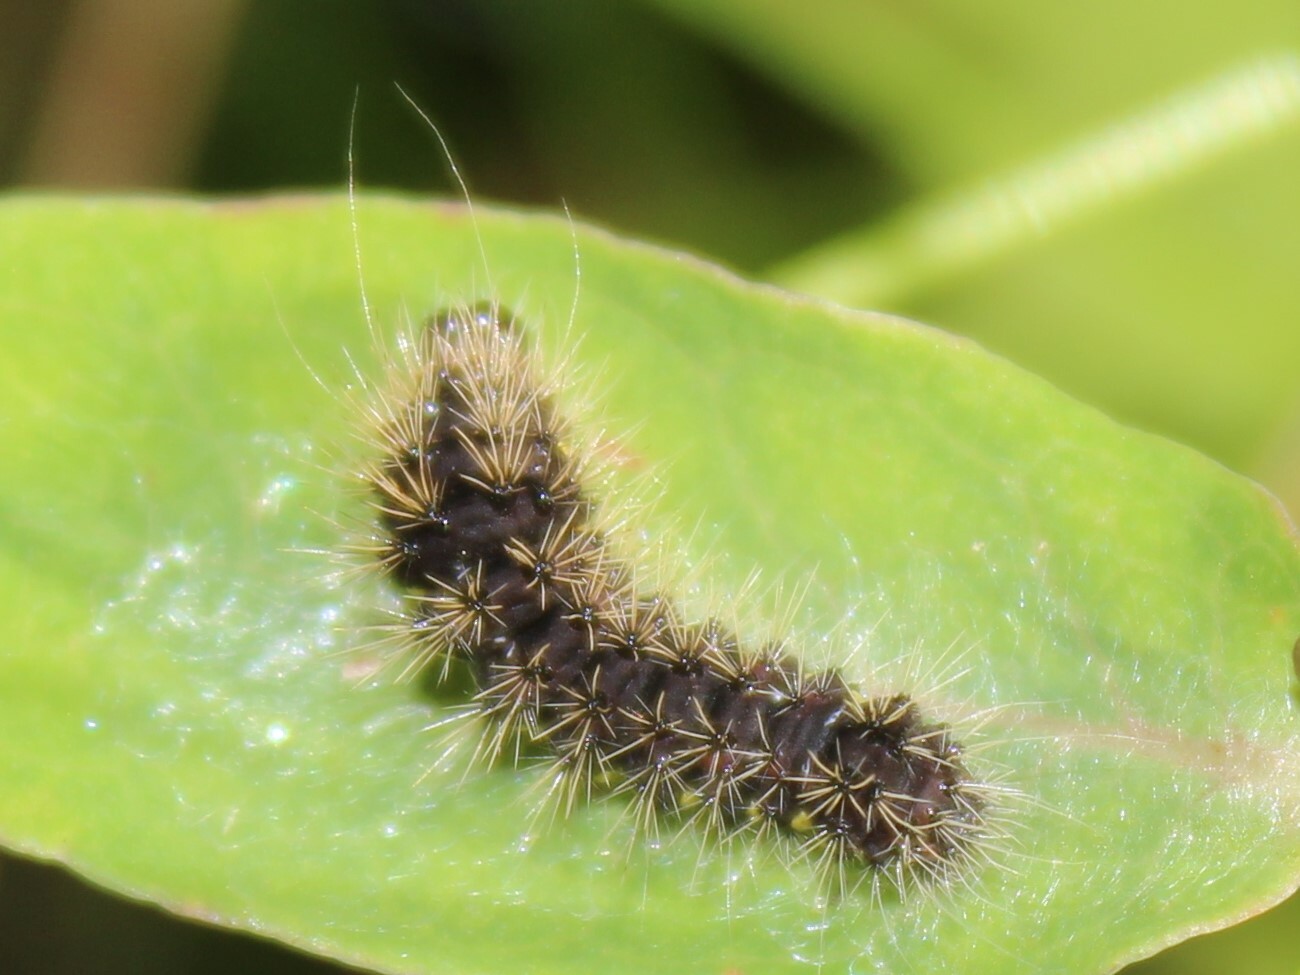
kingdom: Animalia
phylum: Arthropoda
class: Insecta
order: Lepidoptera
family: Noctuidae
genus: Acronicta
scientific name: Acronicta oblinita
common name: Smeared dagger
